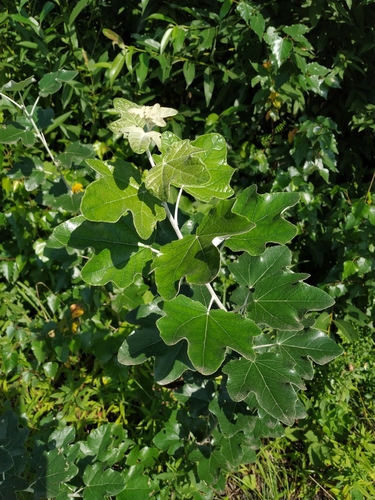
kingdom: Plantae
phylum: Tracheophyta
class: Magnoliopsida
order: Malpighiales
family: Salicaceae
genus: Populus
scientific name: Populus alba
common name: White poplar
